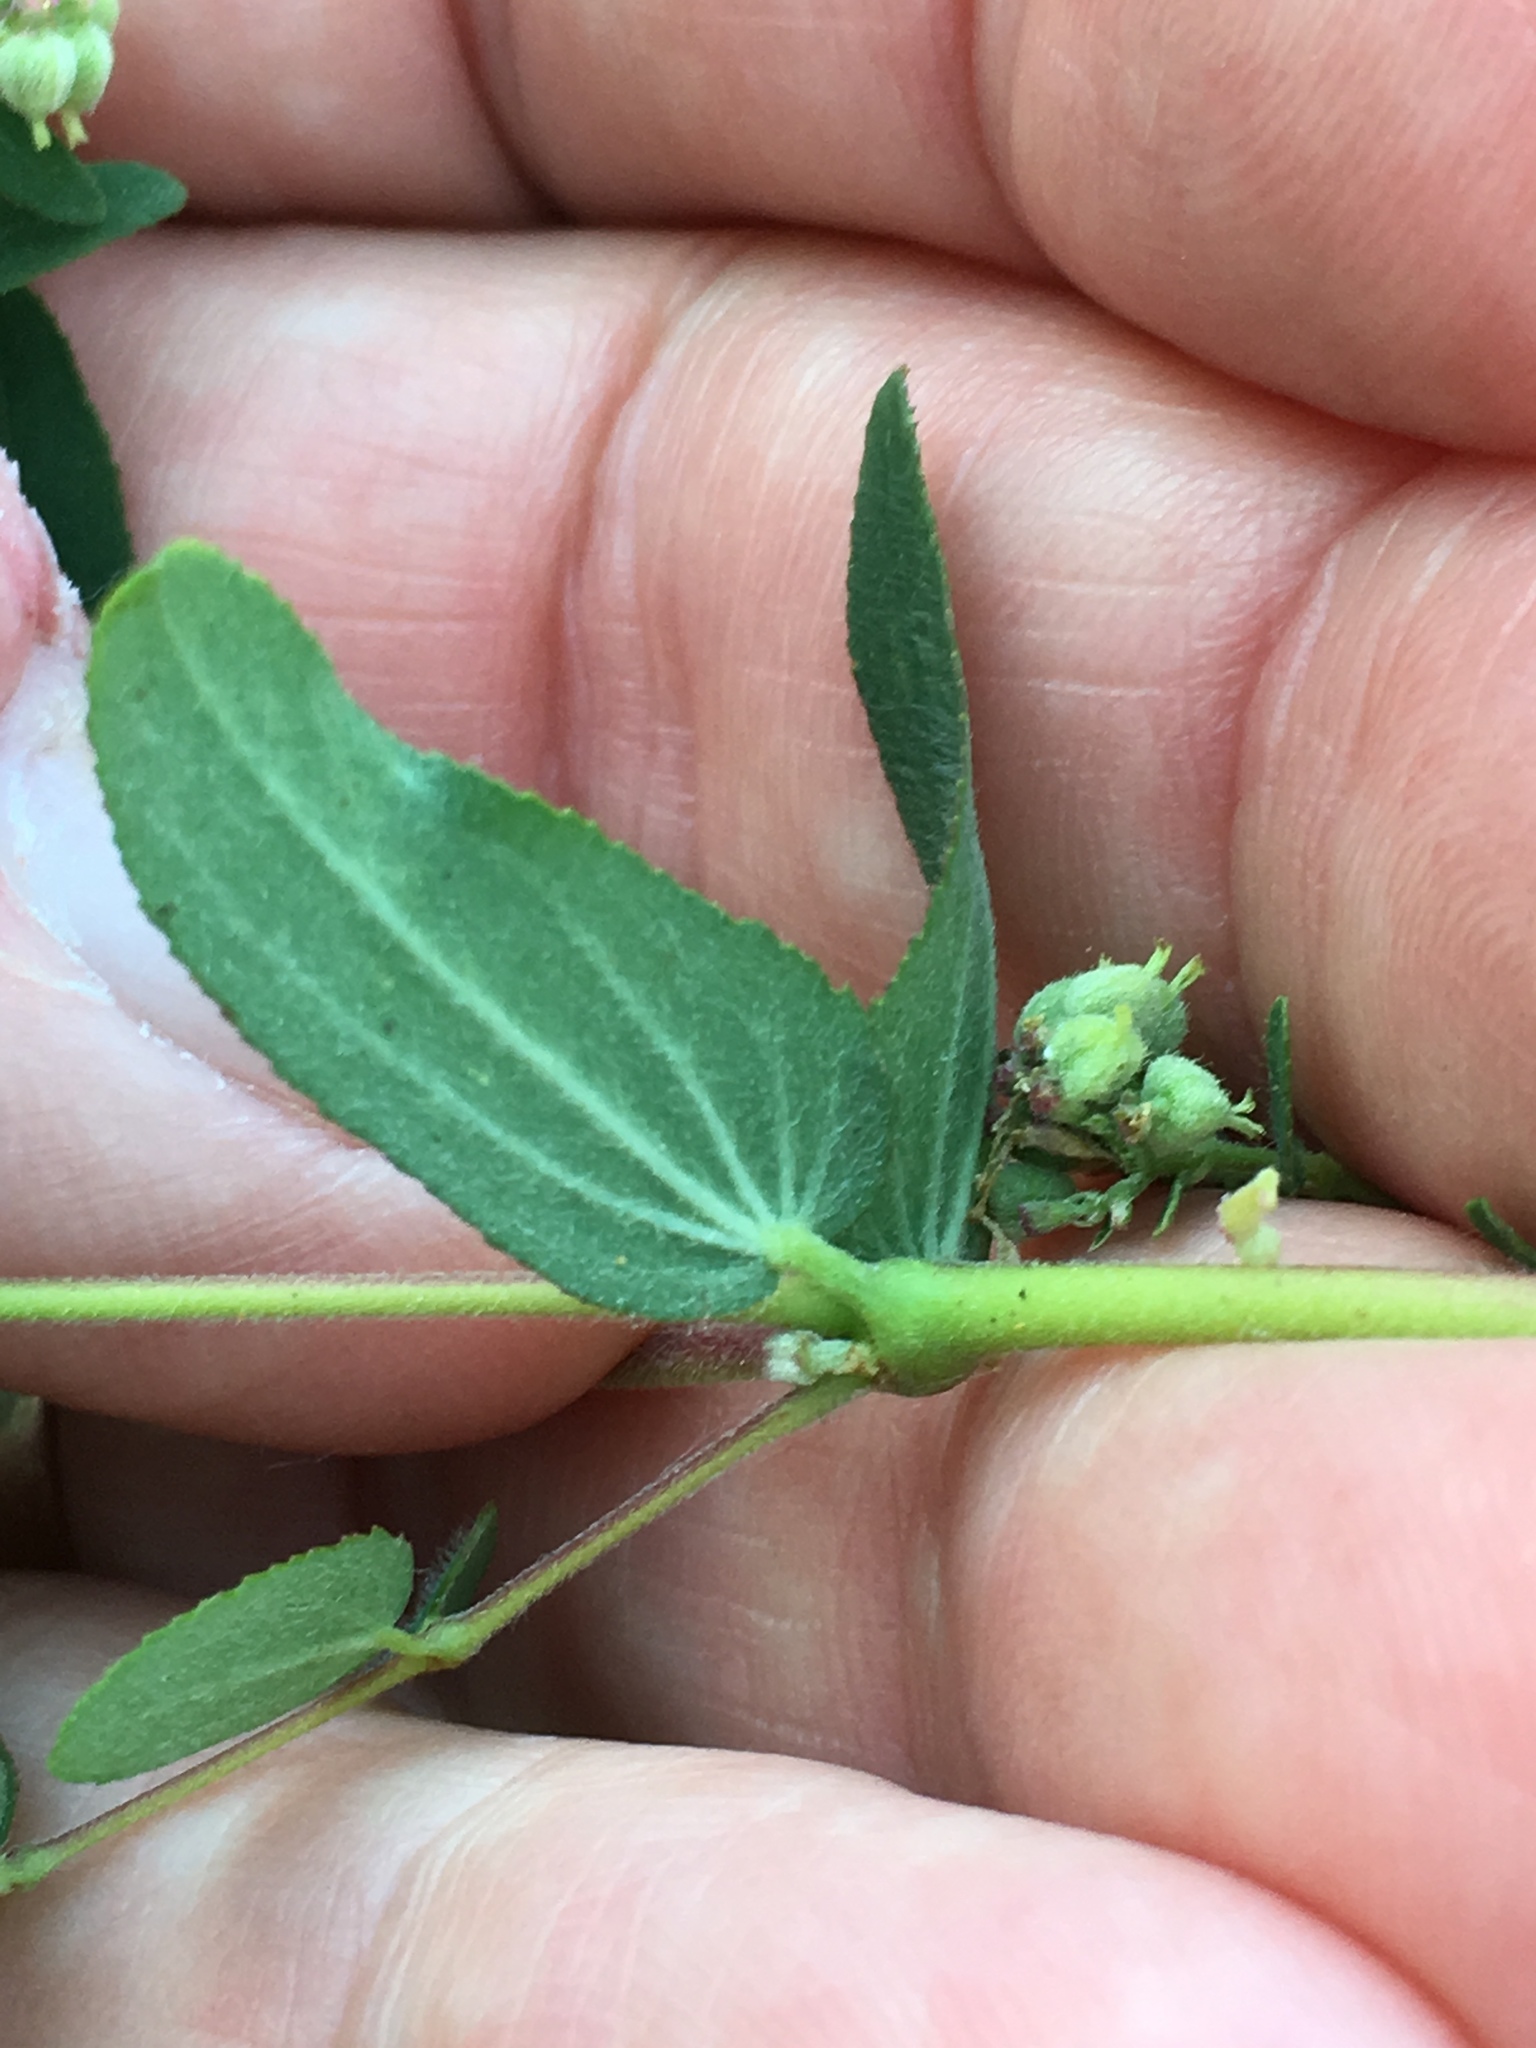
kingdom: Plantae
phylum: Tracheophyta
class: Magnoliopsida
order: Malpighiales
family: Euphorbiaceae
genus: Euphorbia
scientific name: Euphorbia lasiocarpa
